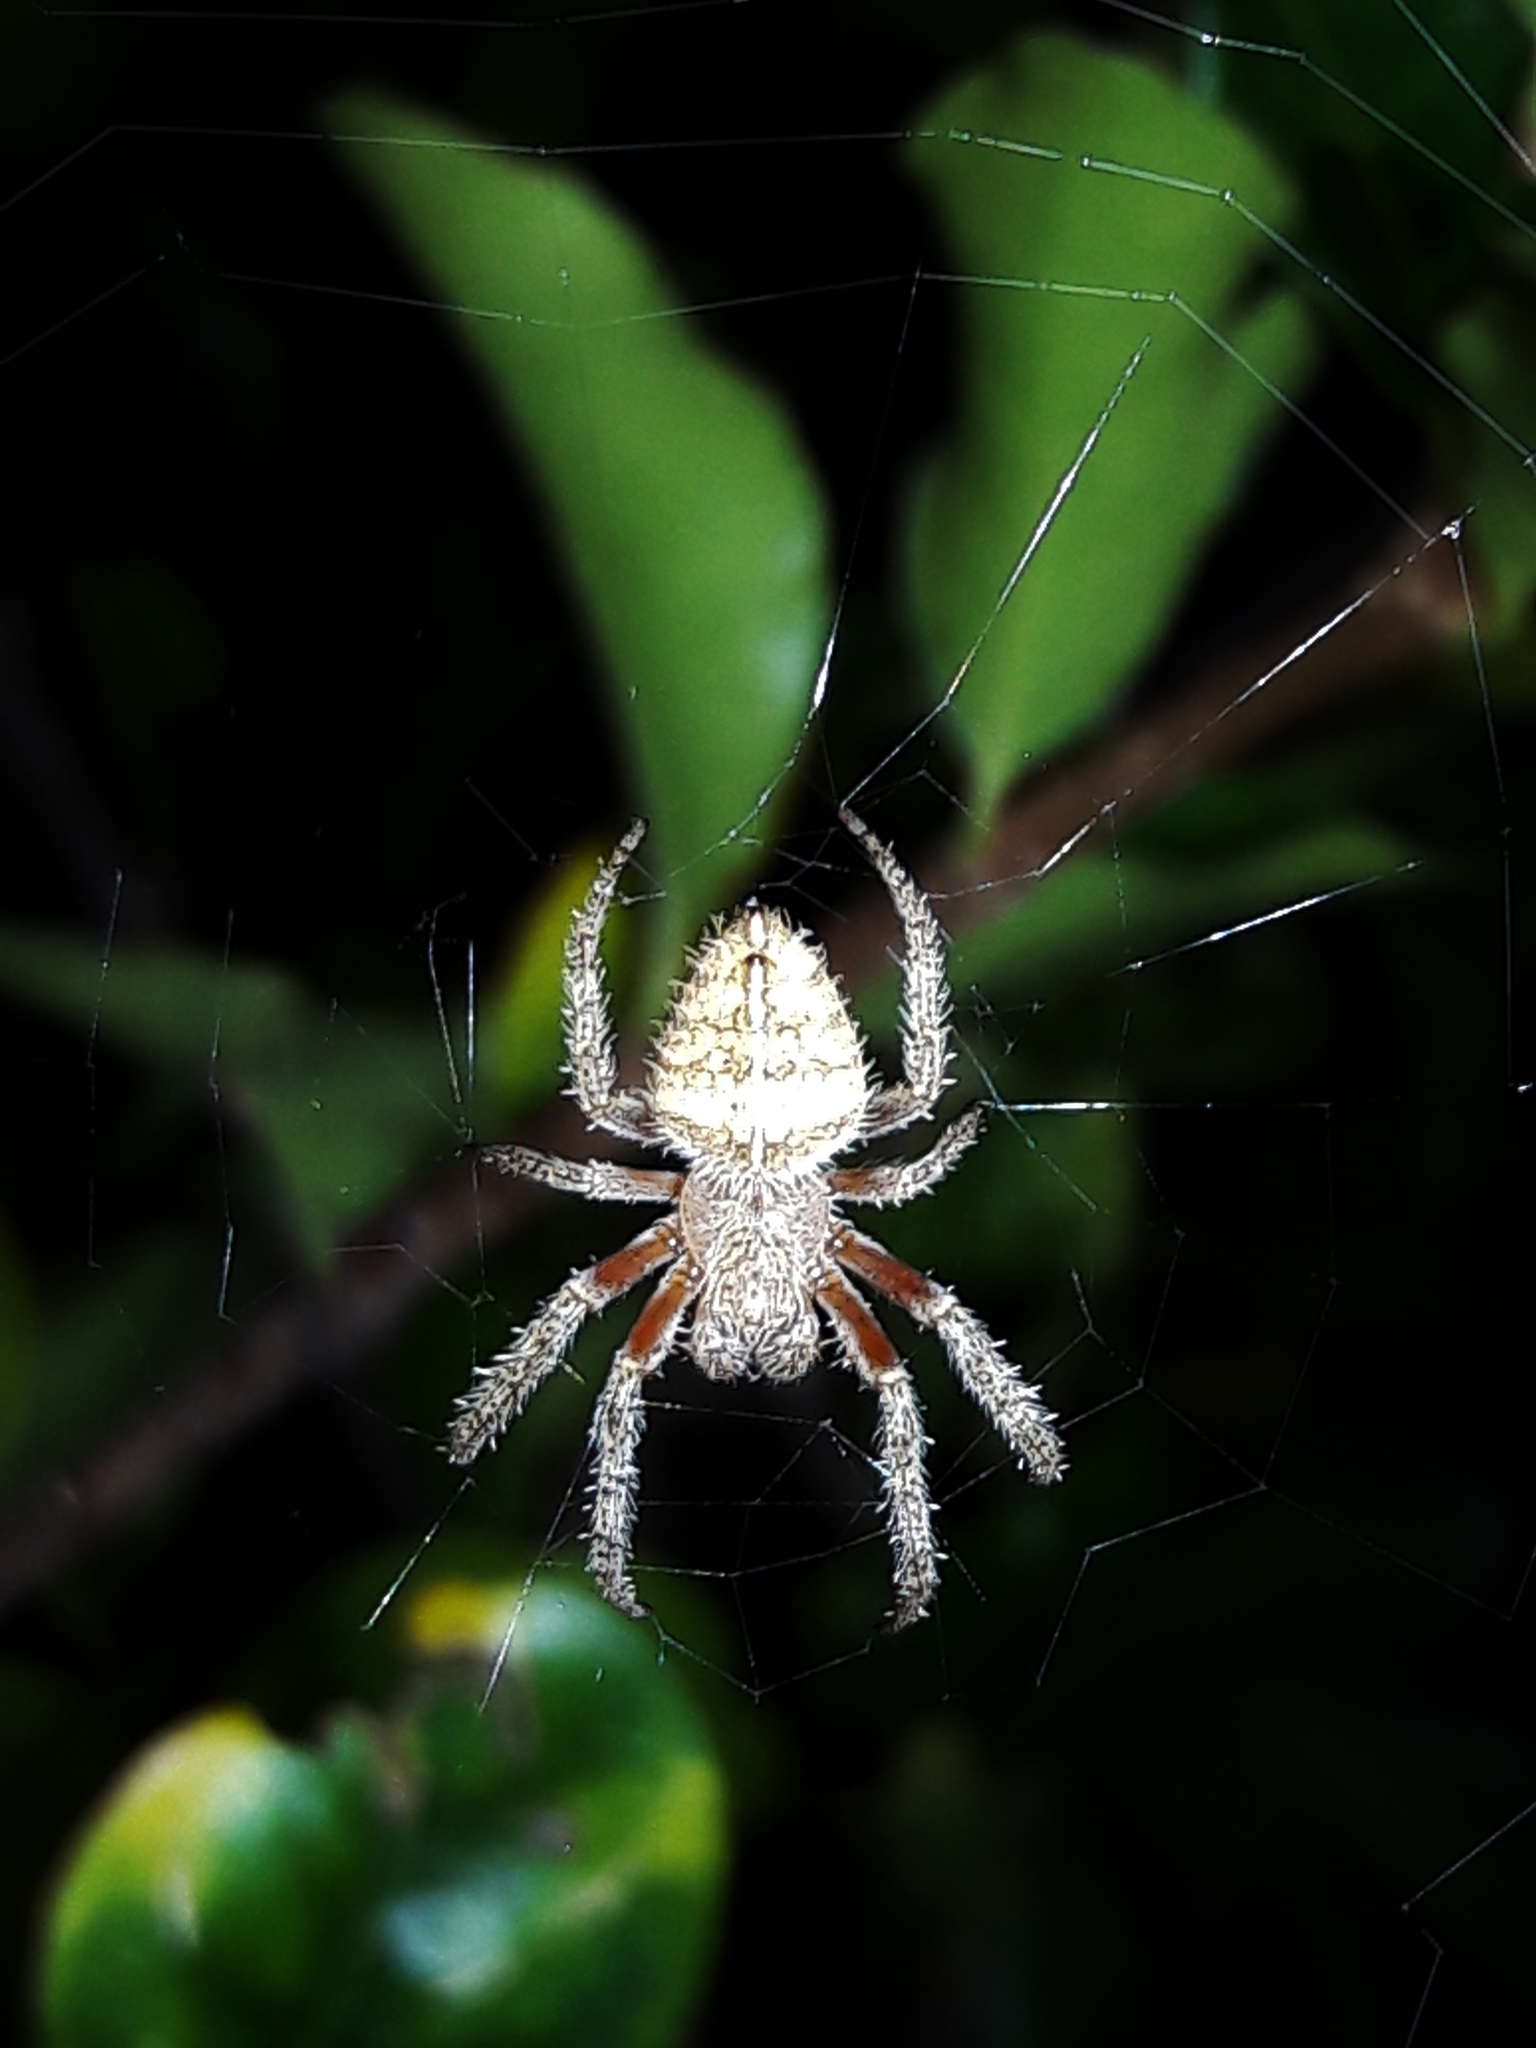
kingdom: Animalia
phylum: Arthropoda
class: Arachnida
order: Araneae
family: Araneidae
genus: Eriophora
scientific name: Eriophora edax
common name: Orb weavers
